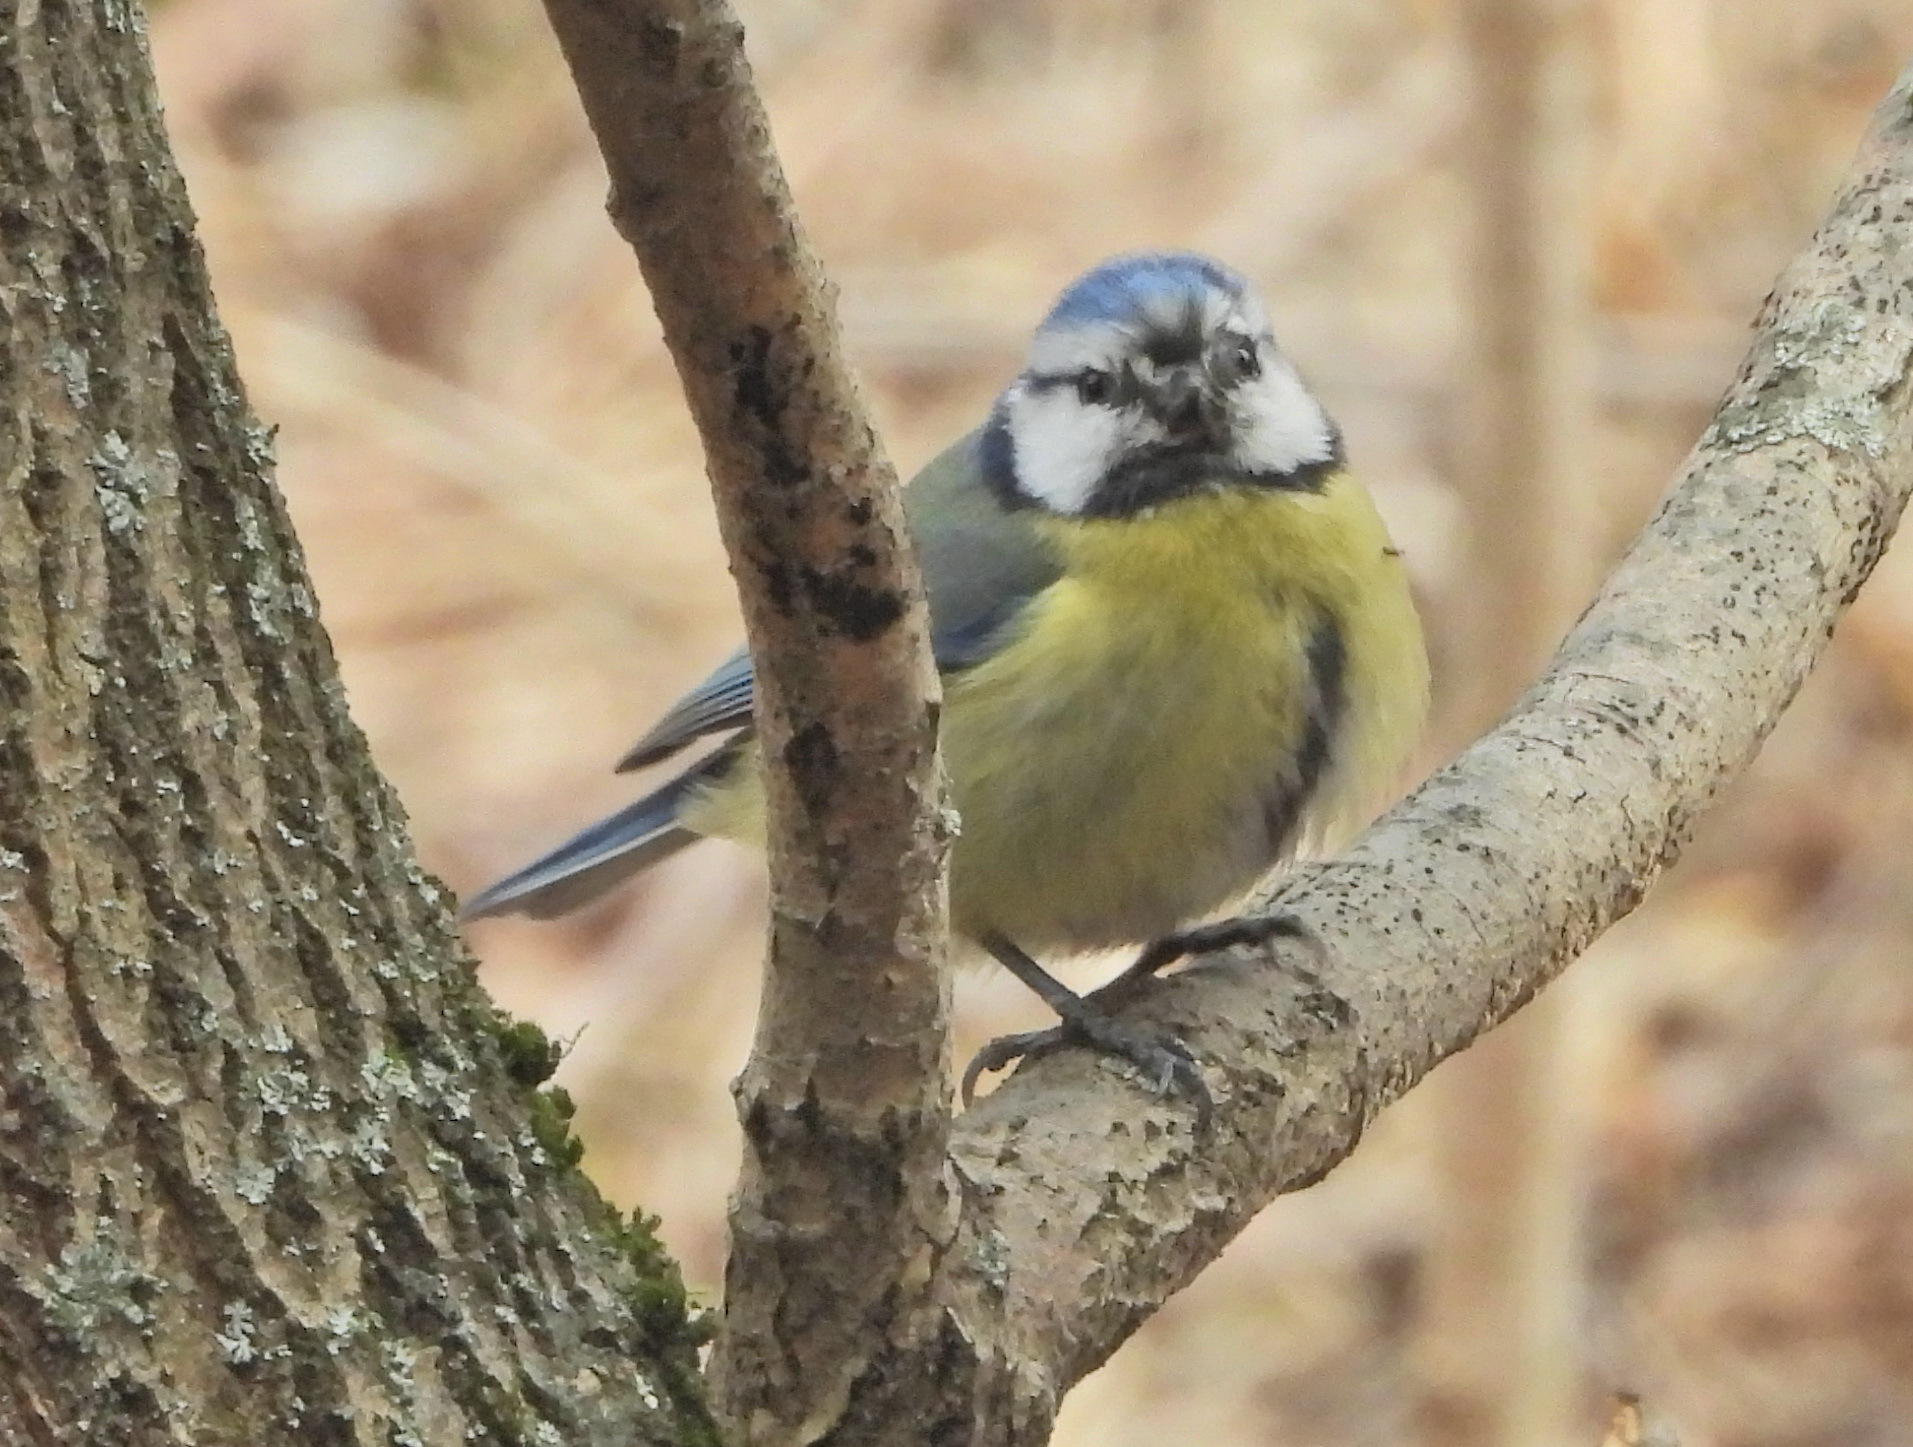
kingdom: Animalia
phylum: Chordata
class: Aves
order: Passeriformes
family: Paridae
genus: Cyanistes
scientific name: Cyanistes caeruleus
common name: Eurasian blue tit
